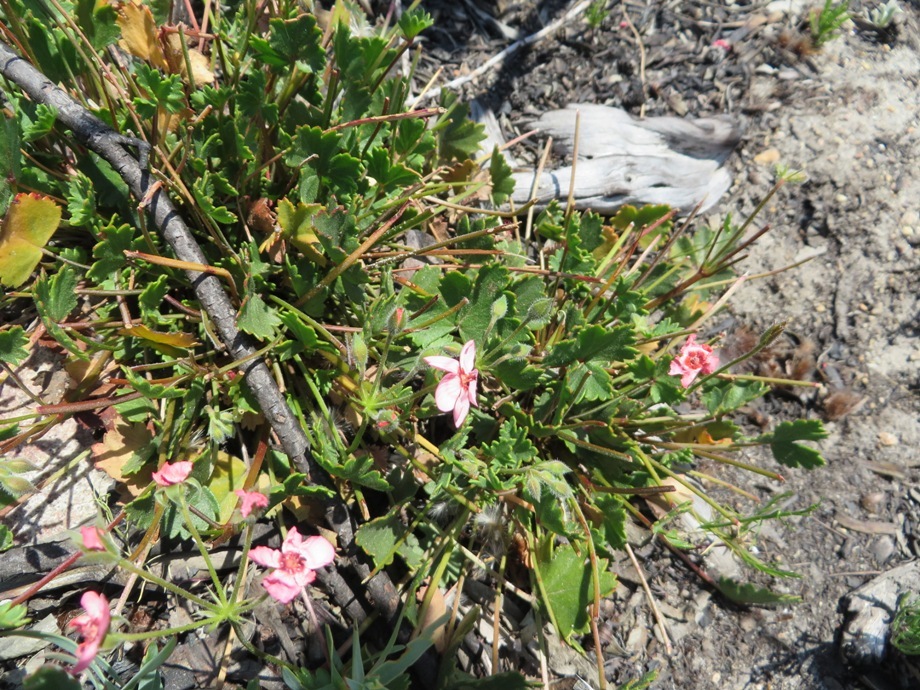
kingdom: Plantae
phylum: Tracheophyta
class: Magnoliopsida
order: Geraniales
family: Geraniaceae
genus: Pelargonium
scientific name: Pelargonium incarnatum
